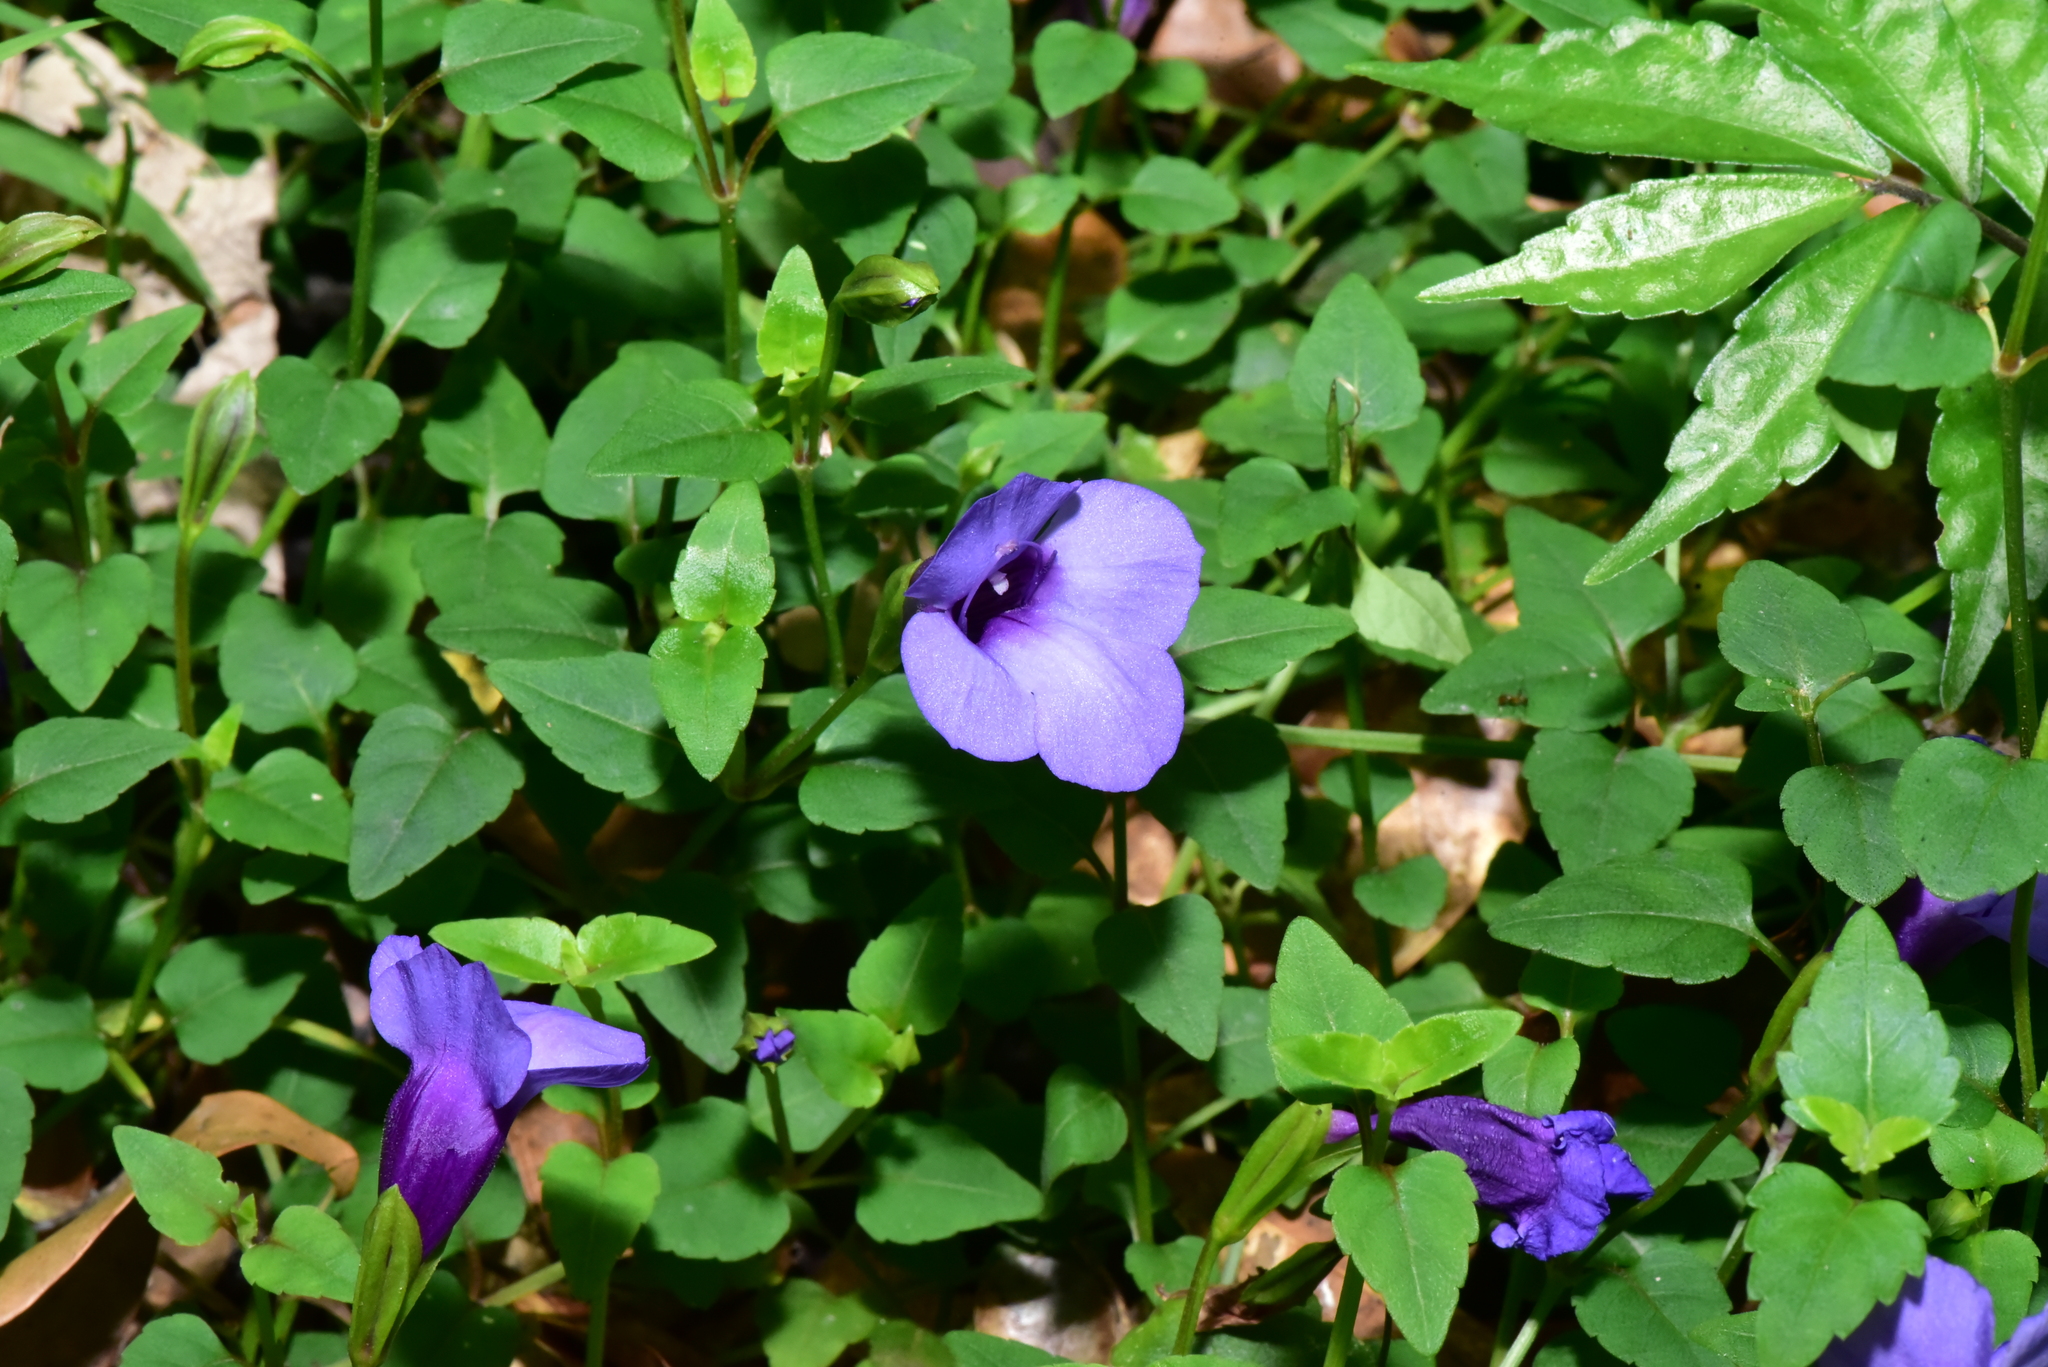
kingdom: Plantae
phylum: Tracheophyta
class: Magnoliopsida
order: Lamiales
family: Linderniaceae
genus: Torenia
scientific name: Torenia concolor
